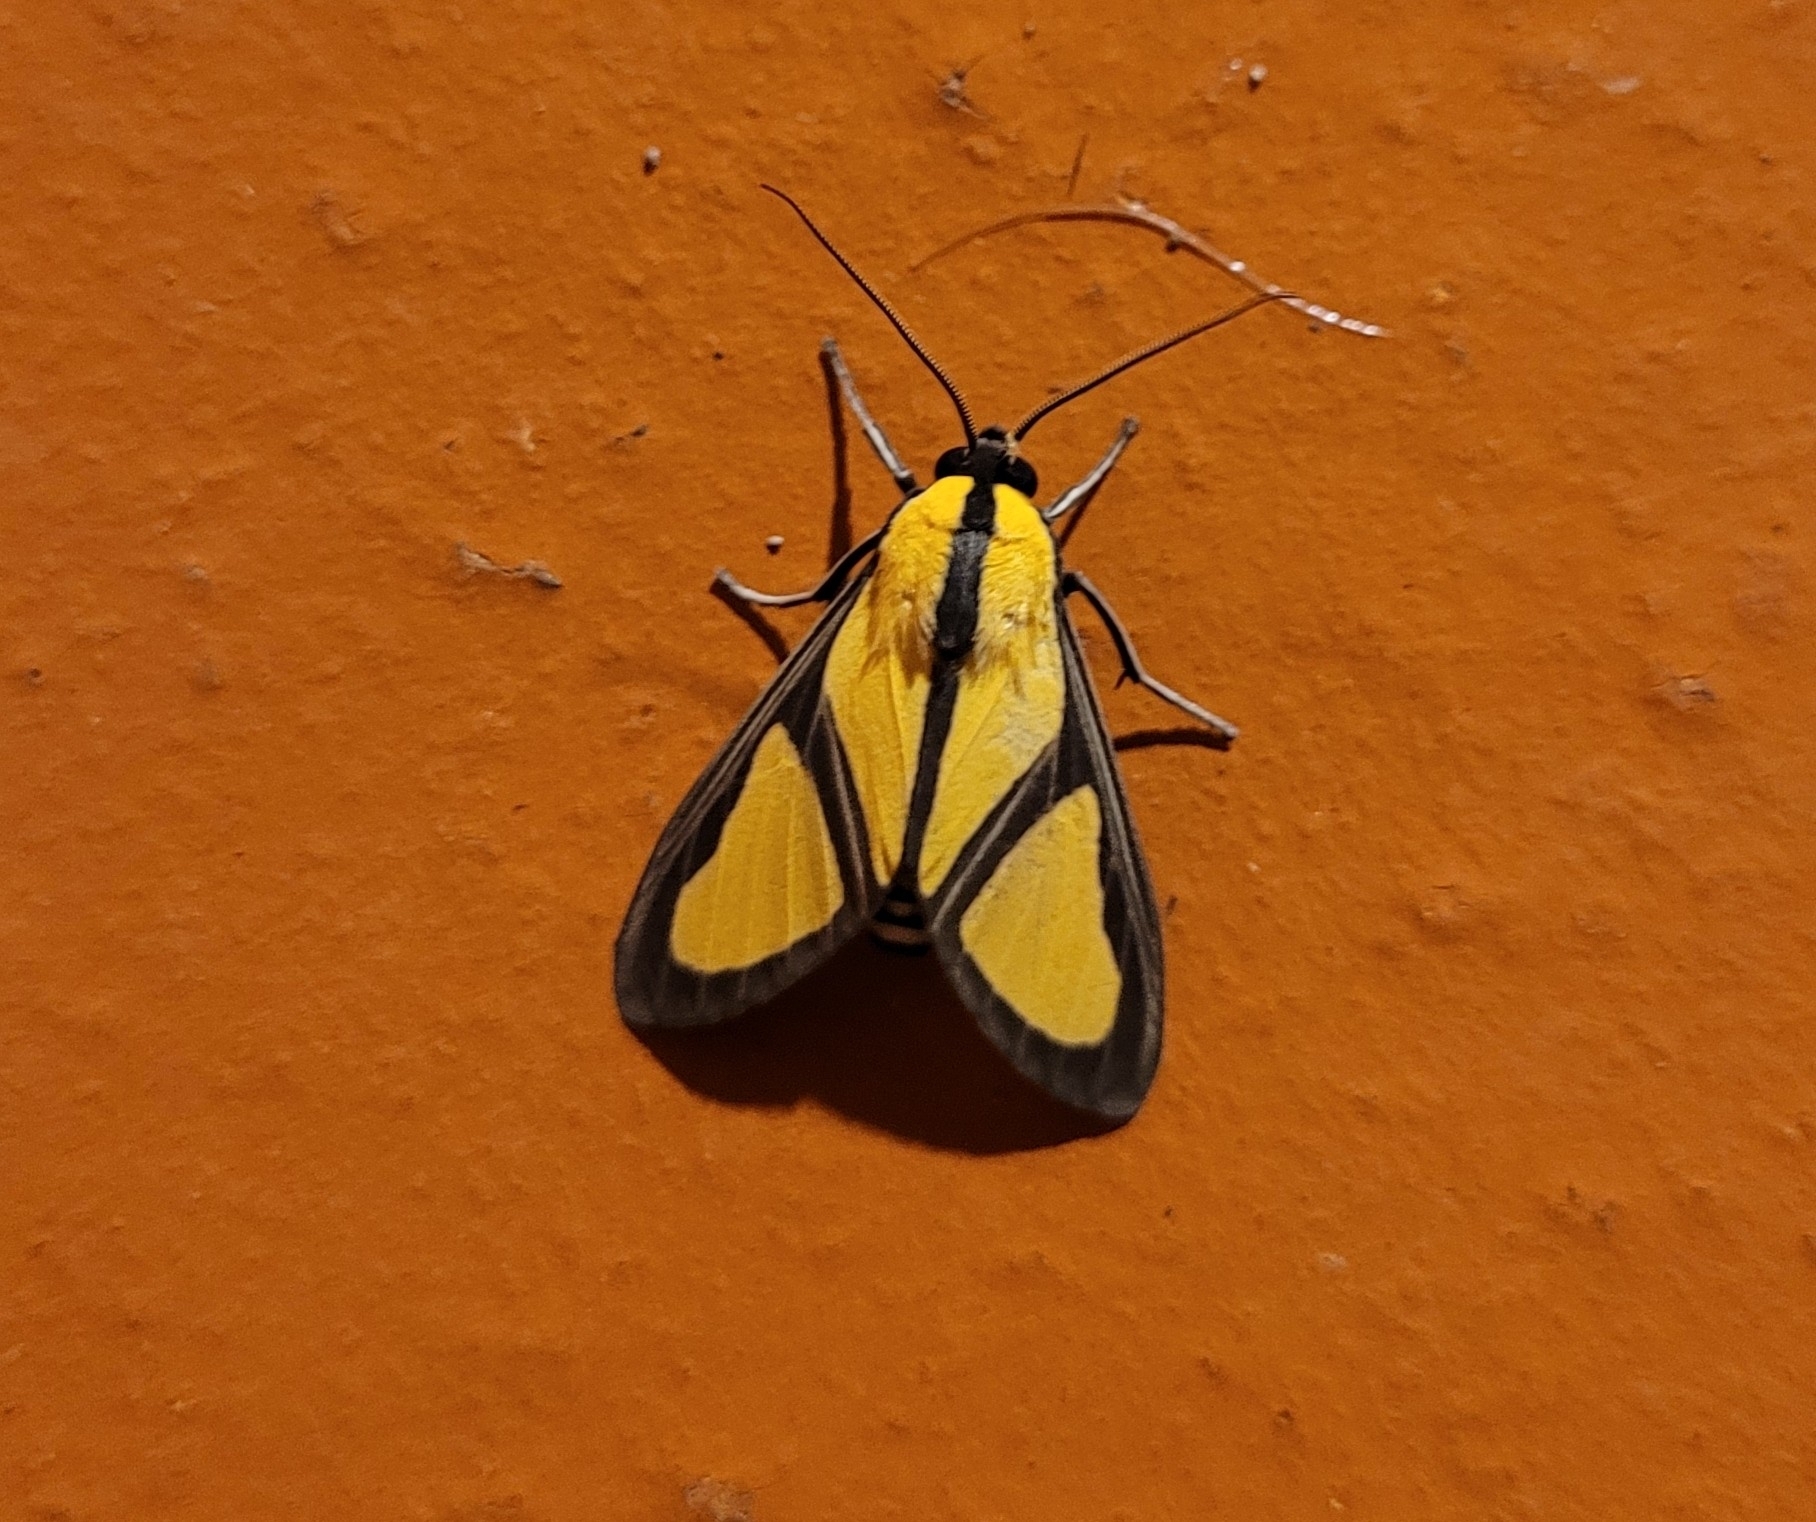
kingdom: Animalia
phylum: Arthropoda
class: Insecta
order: Lepidoptera
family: Erebidae
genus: Ormetica
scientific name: Ormetica ameoides
